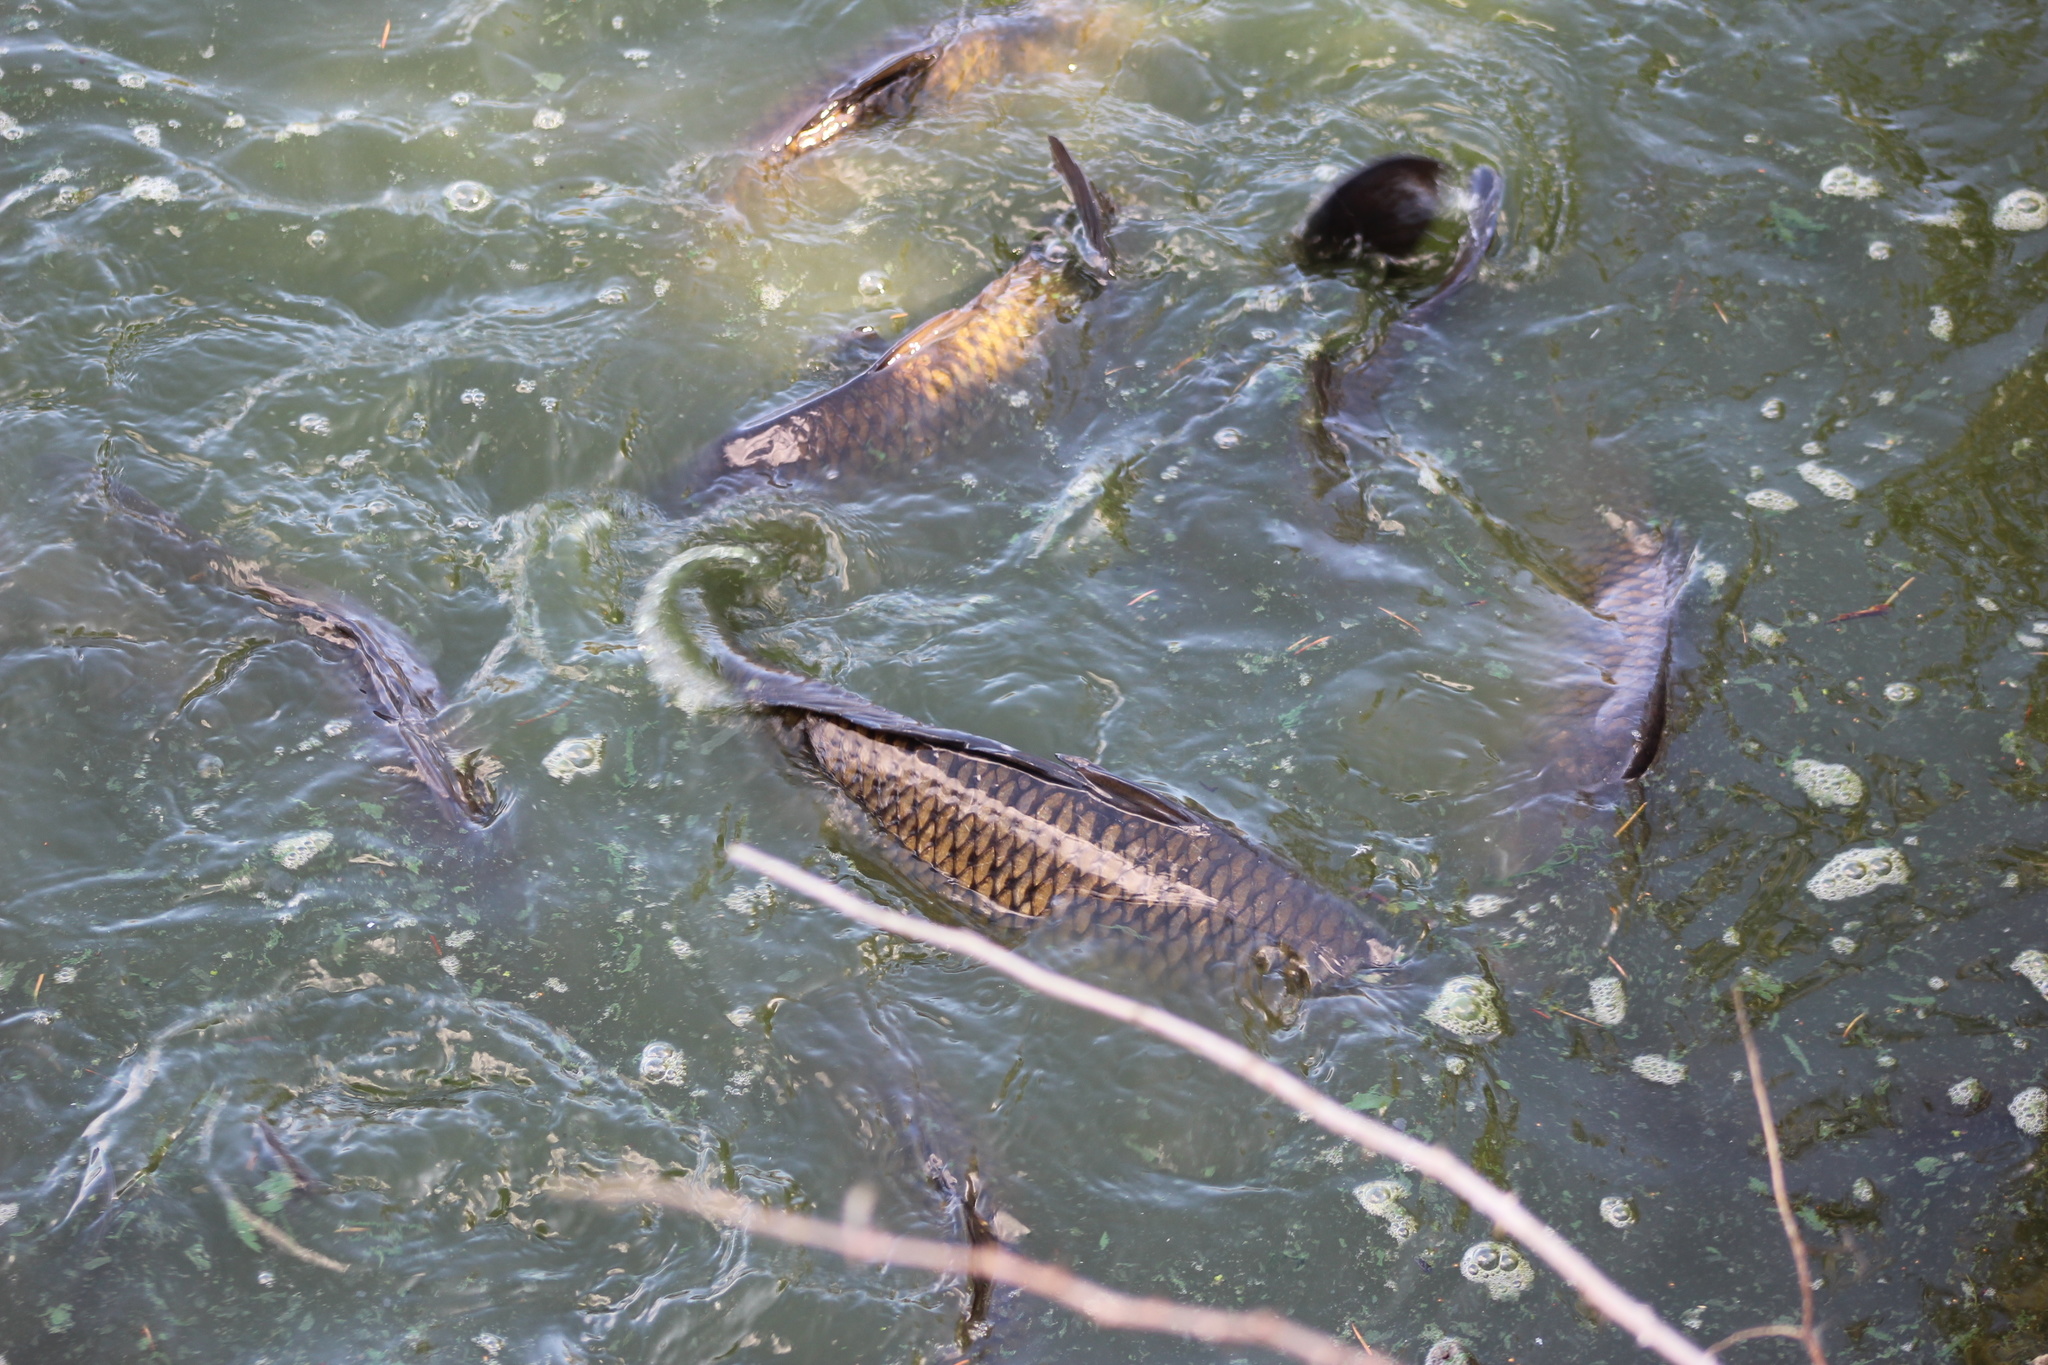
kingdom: Animalia
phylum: Chordata
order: Cypriniformes
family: Cyprinidae
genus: Cyprinus
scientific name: Cyprinus carpio
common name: Common carp
